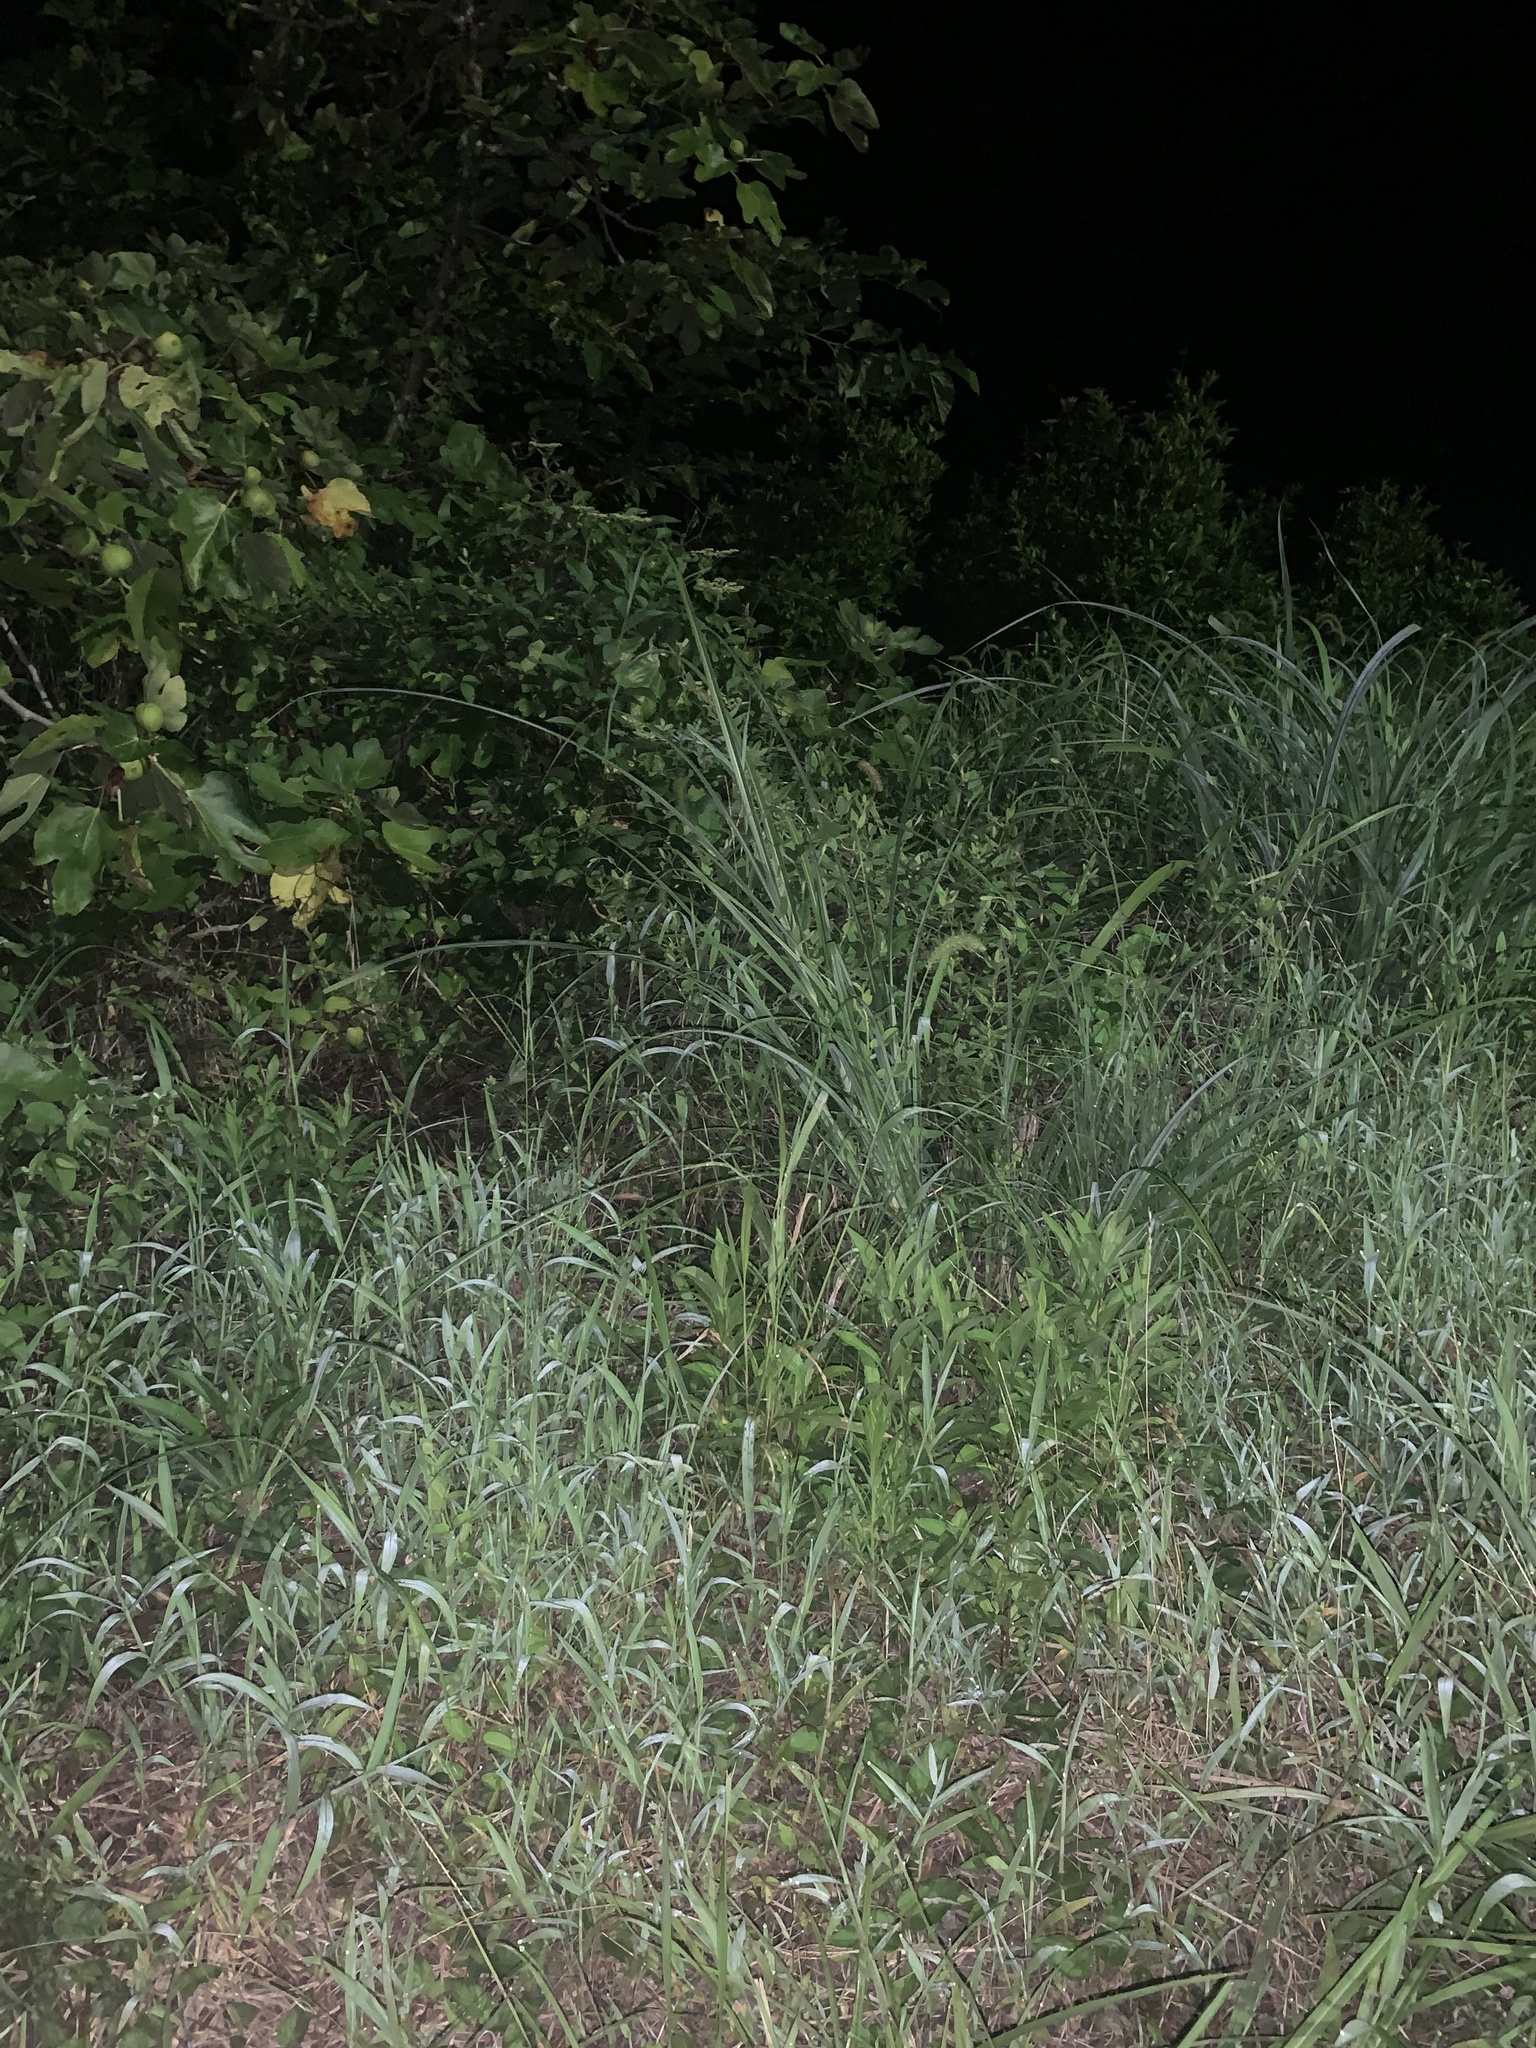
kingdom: Animalia
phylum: Arthropoda
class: Insecta
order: Orthoptera
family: Gryllidae
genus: Xenogryllus
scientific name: Xenogryllus marmoratus
